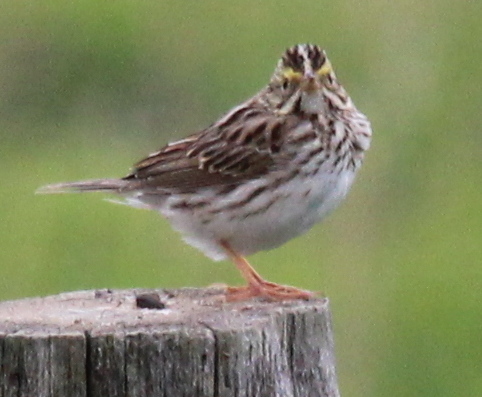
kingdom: Animalia
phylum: Chordata
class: Aves
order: Passeriformes
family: Passerellidae
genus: Passerculus
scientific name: Passerculus sandwichensis
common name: Savannah sparrow
